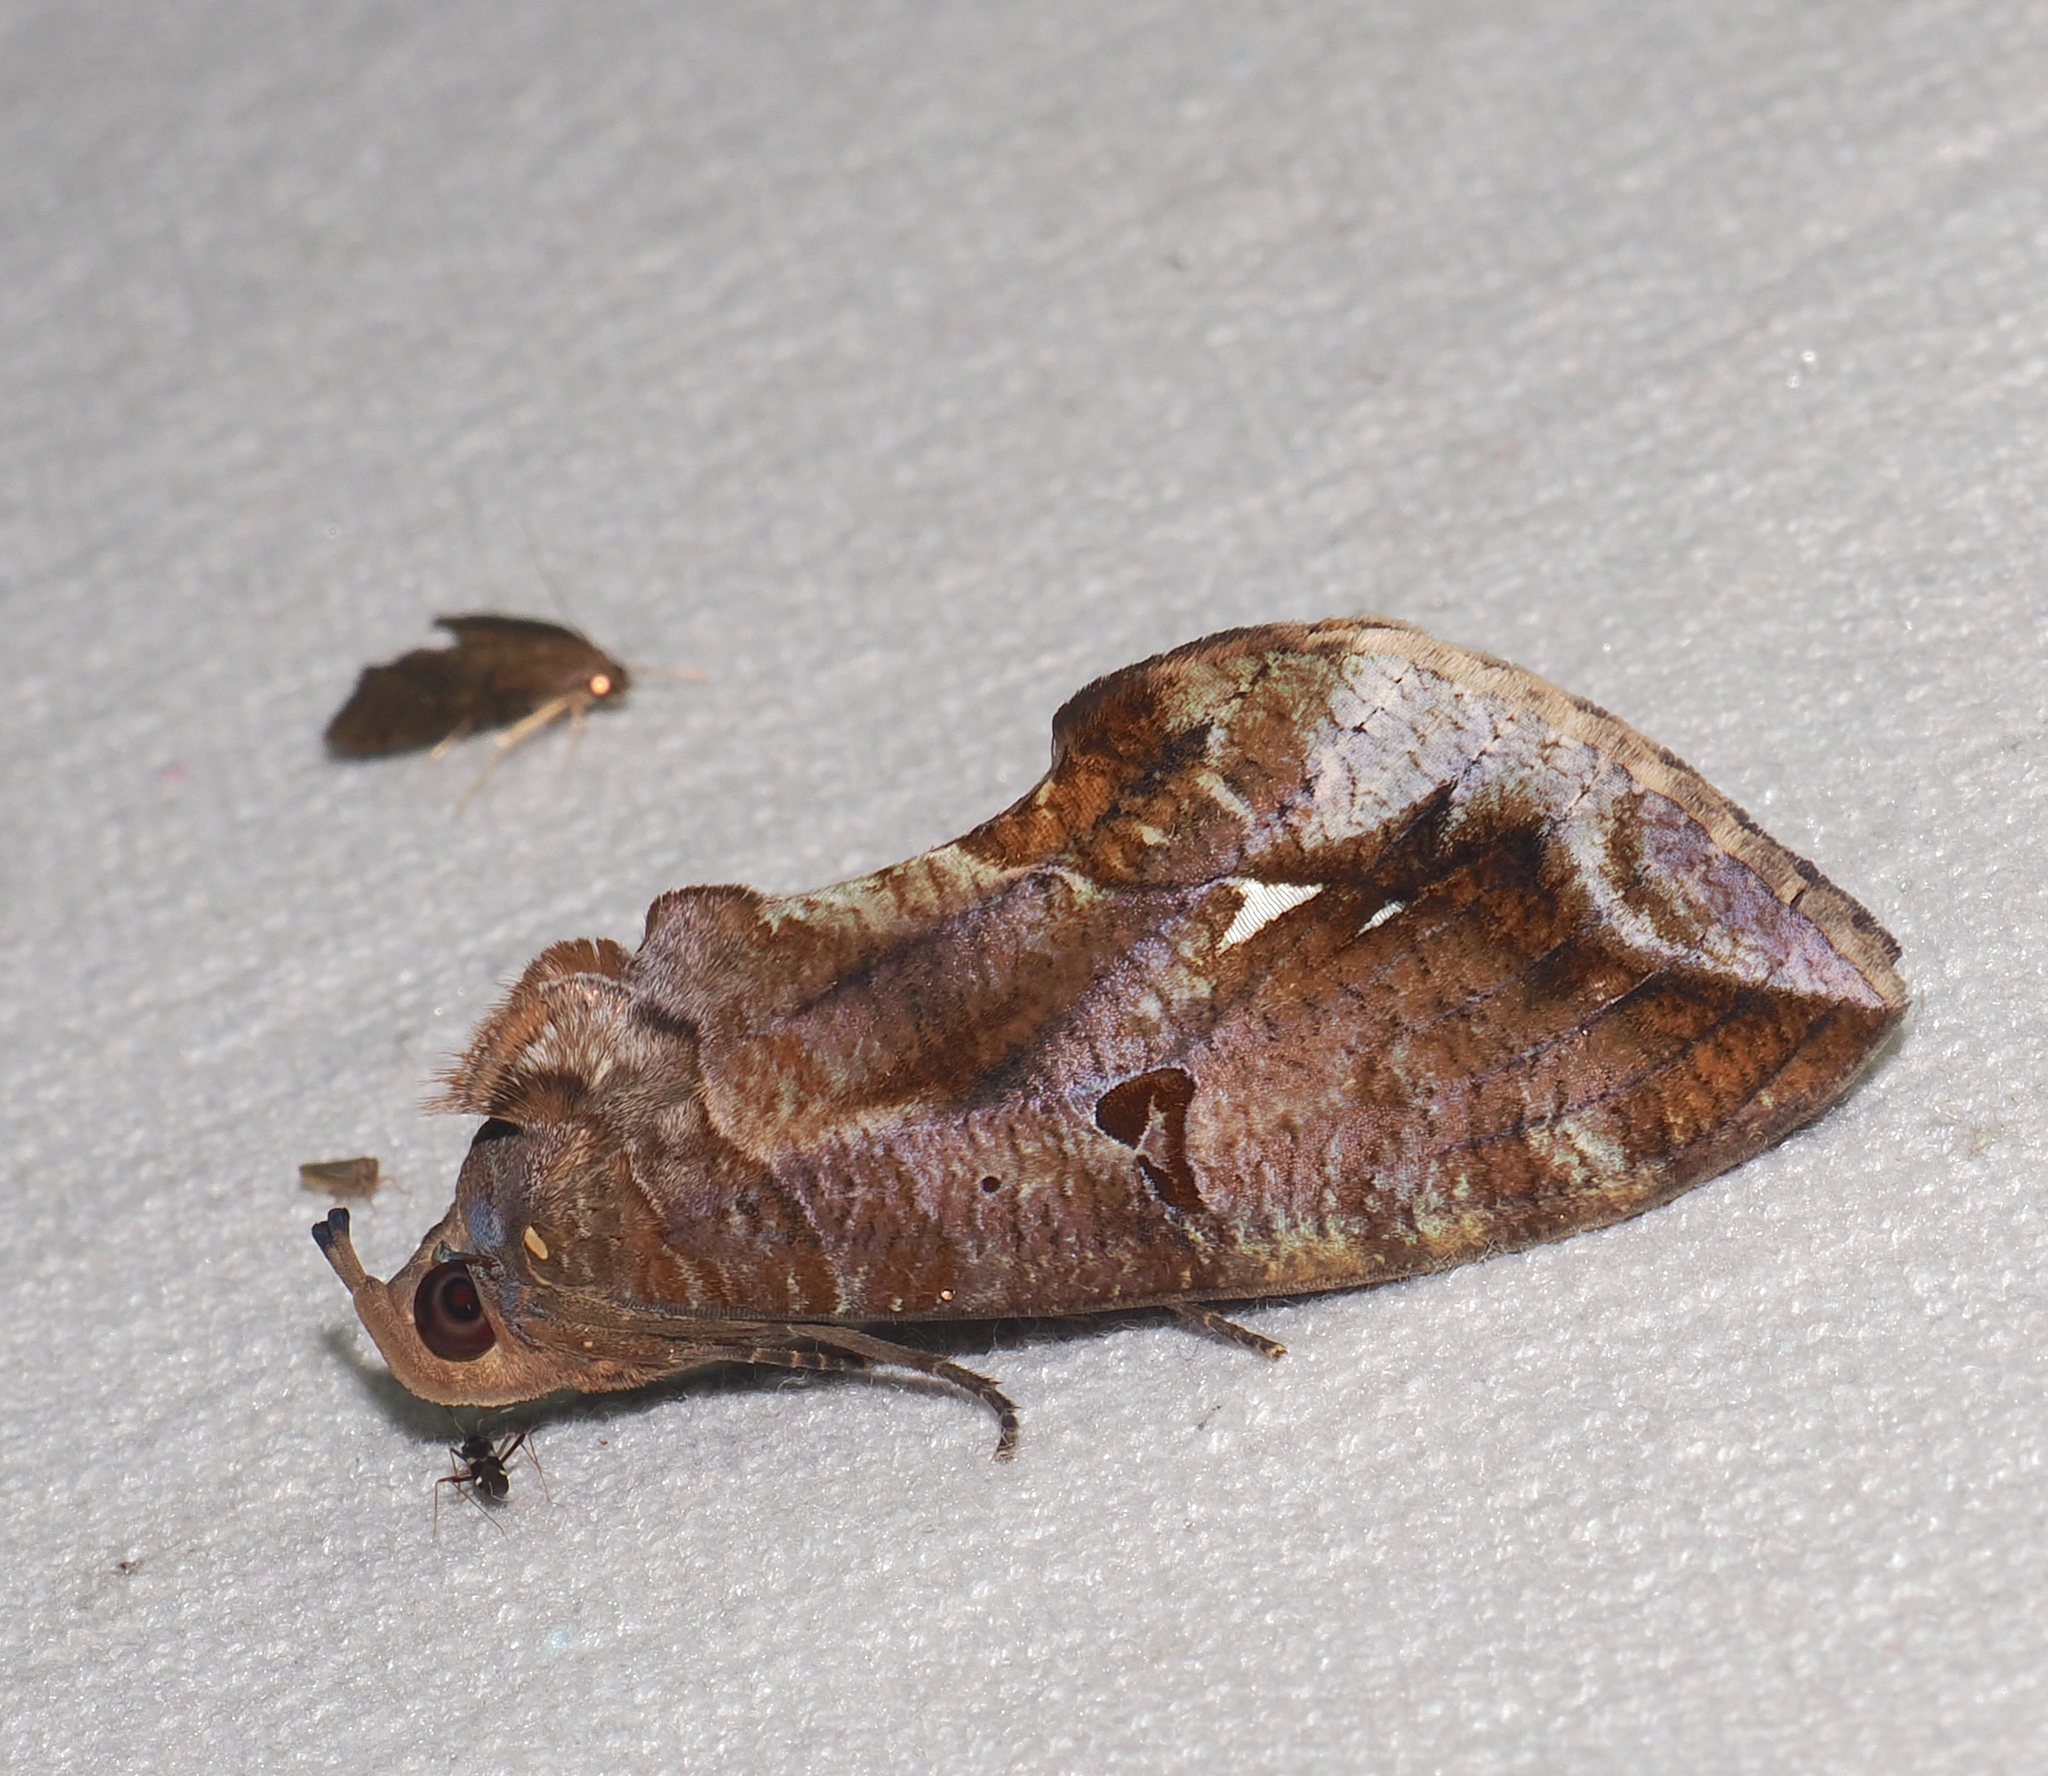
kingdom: Animalia
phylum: Arthropoda
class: Insecta
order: Lepidoptera
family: Erebidae
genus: Eudocima
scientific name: Eudocima procus
